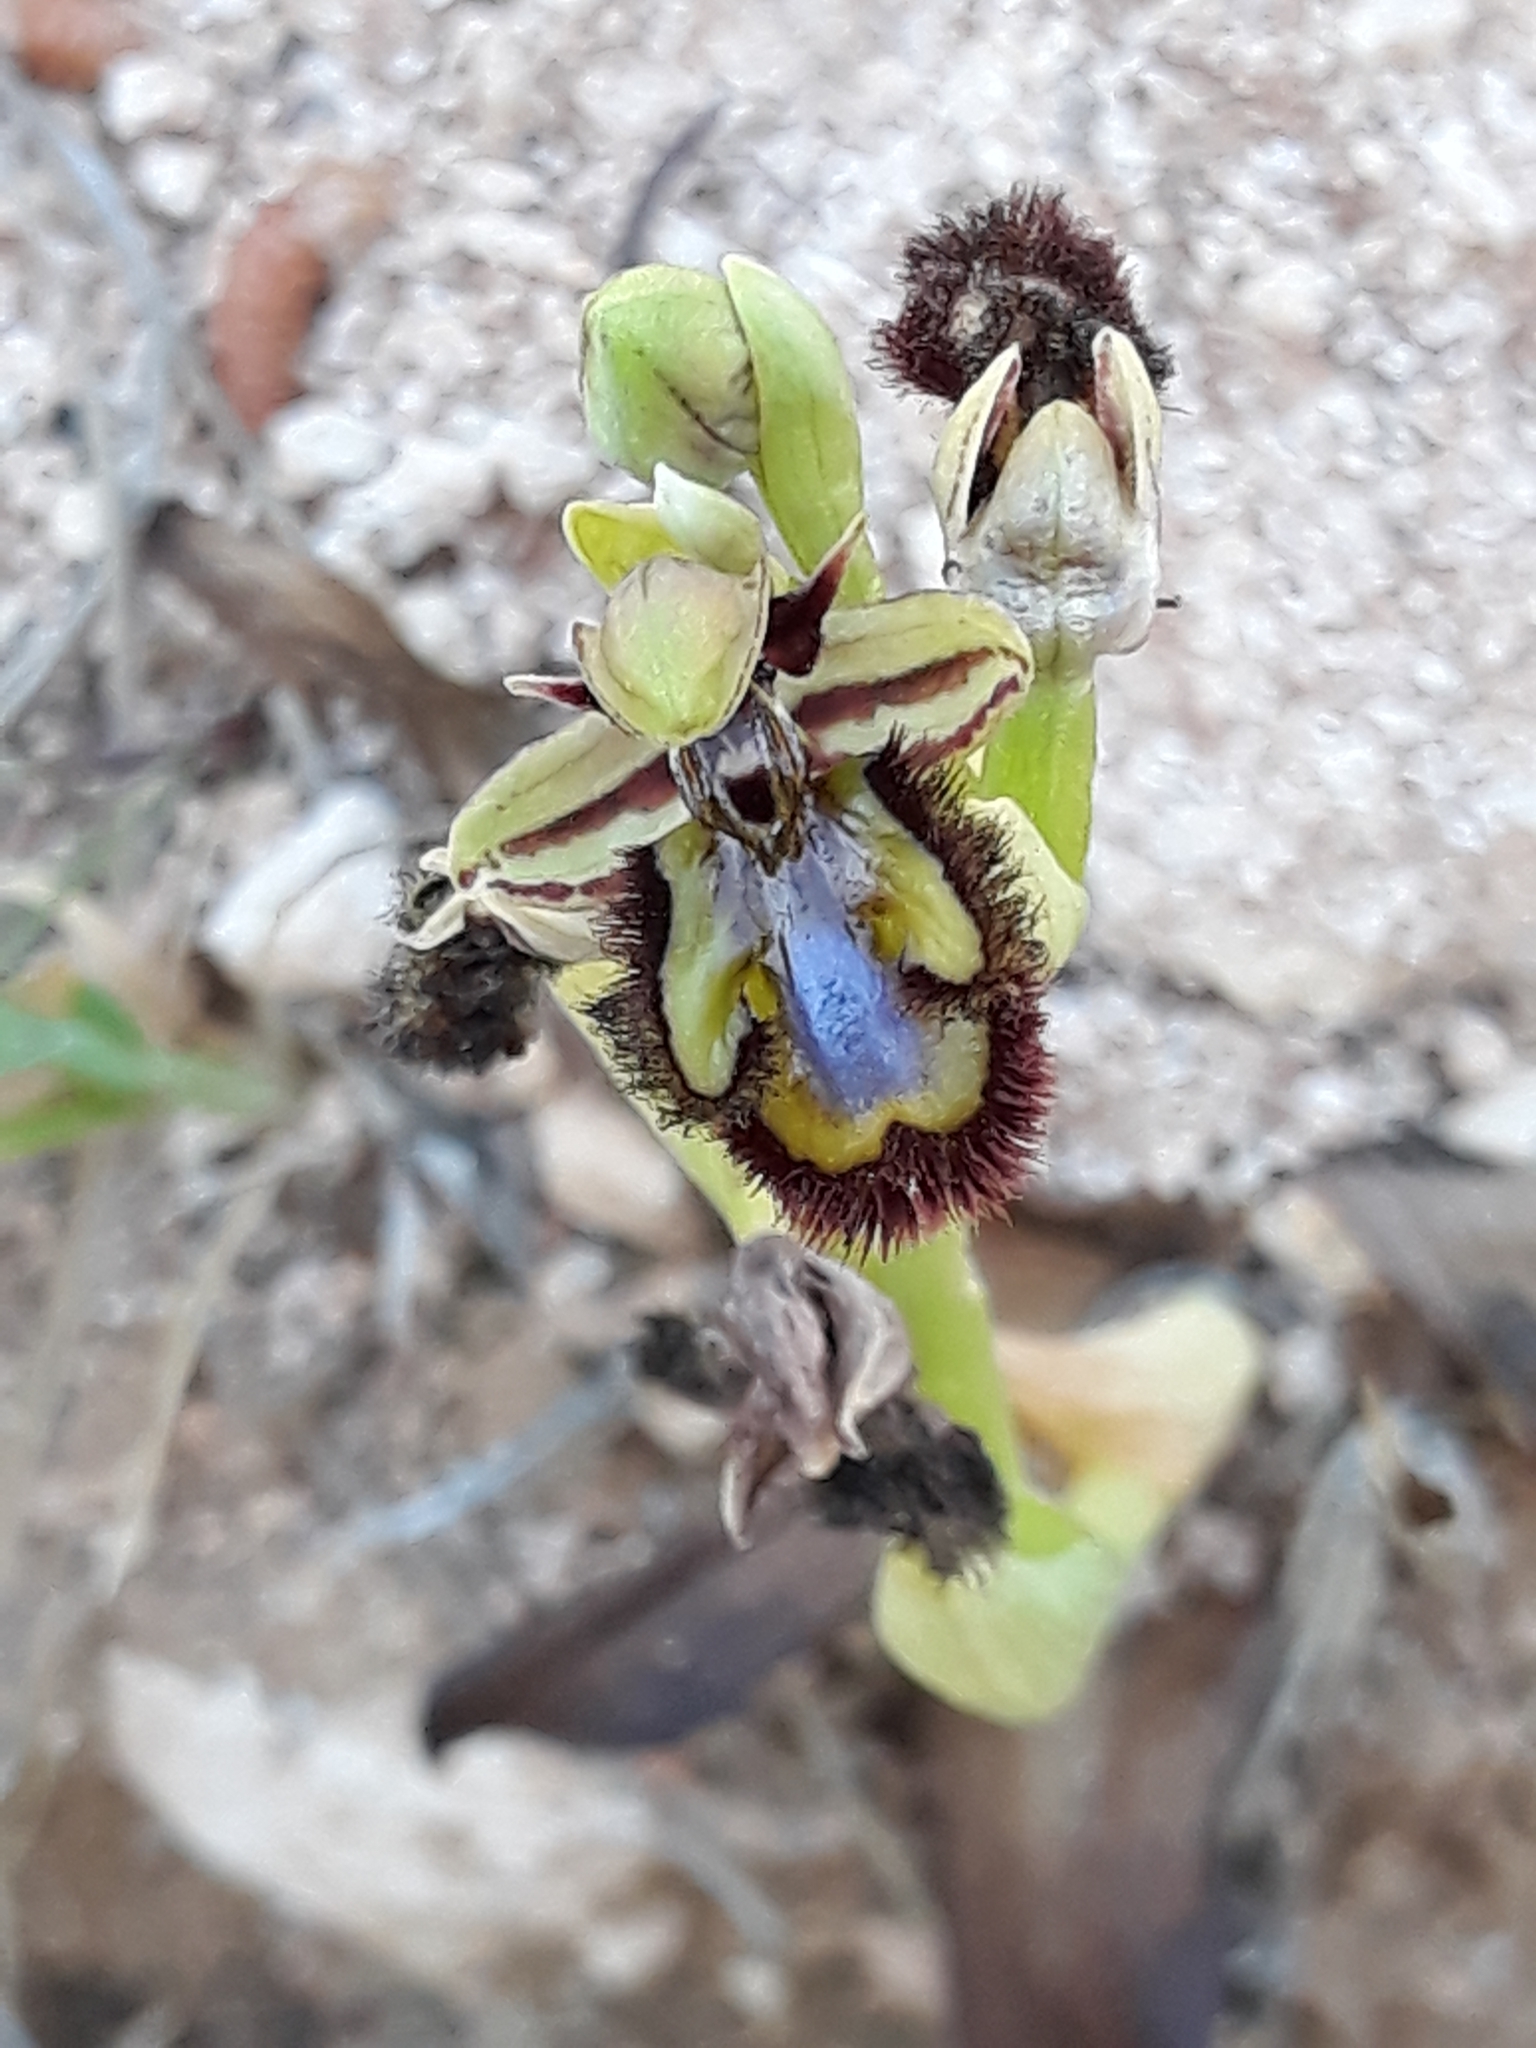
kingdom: Plantae
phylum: Tracheophyta
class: Liliopsida
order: Asparagales
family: Orchidaceae
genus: Ophrys
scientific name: Ophrys speculum
